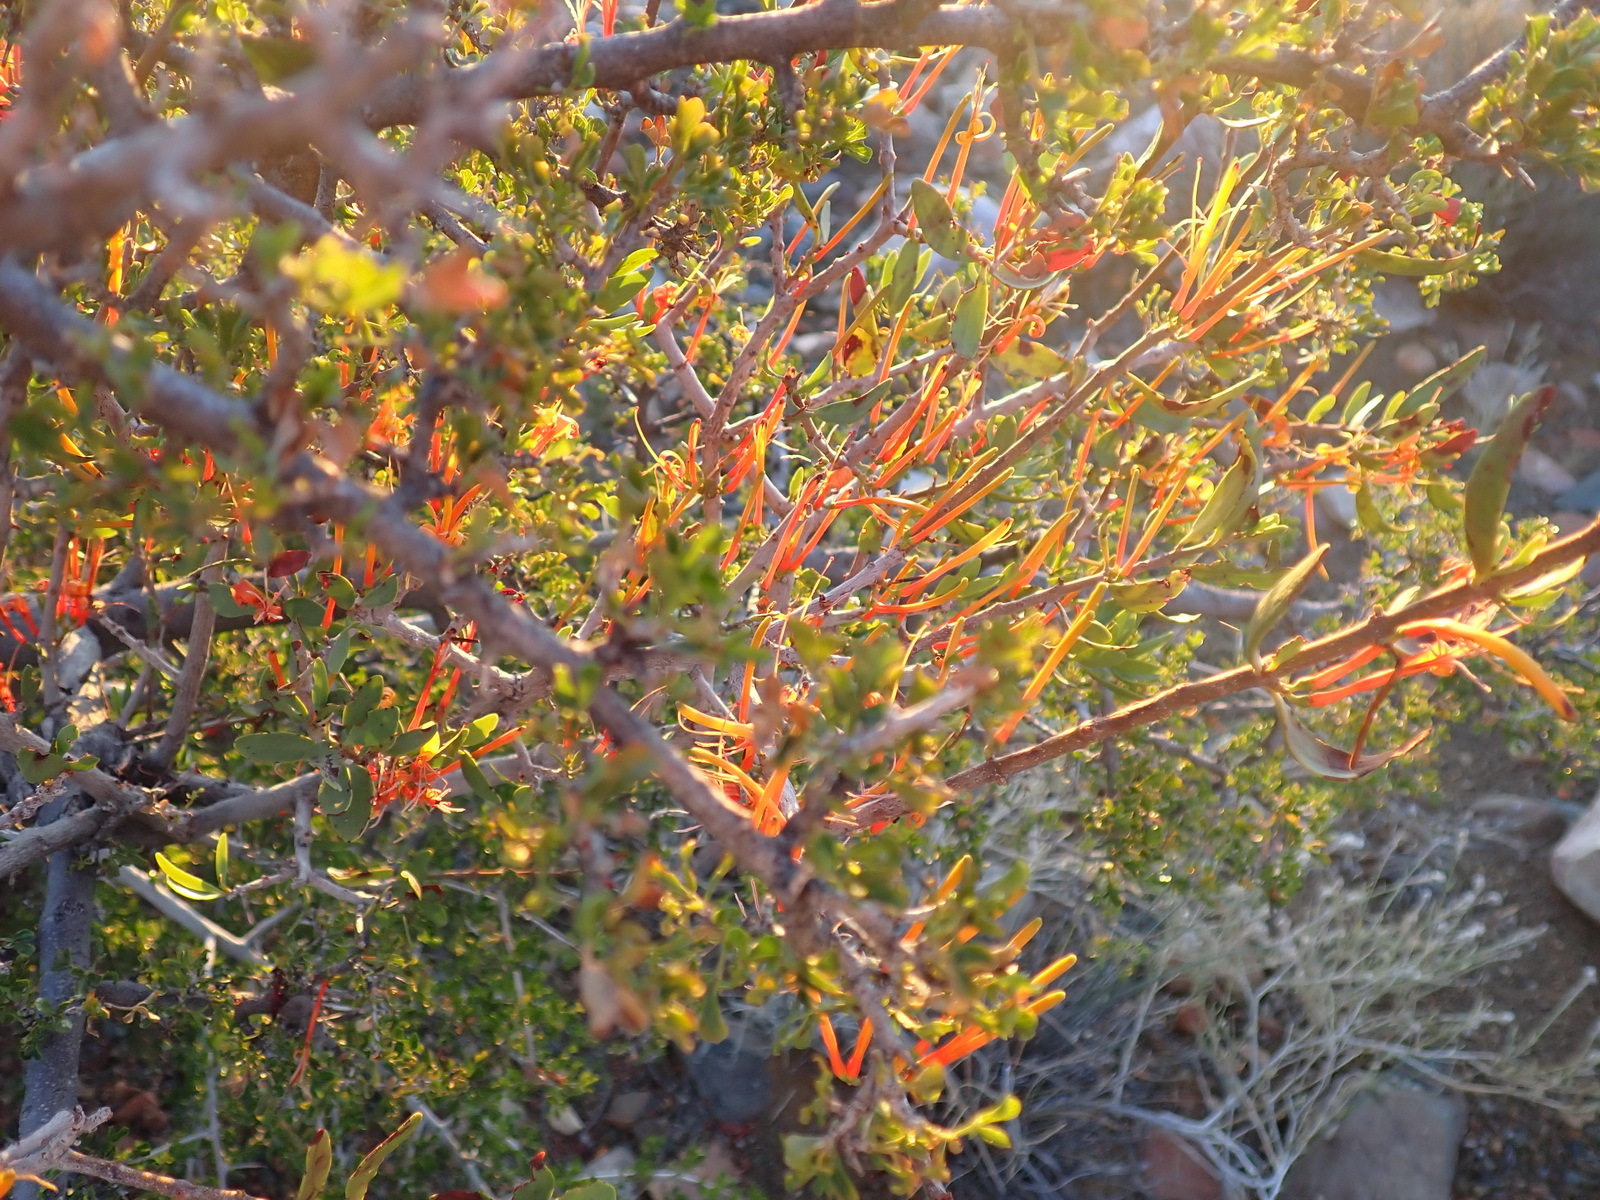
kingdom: Plantae
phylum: Tracheophyta
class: Magnoliopsida
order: Santalales
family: Loranthaceae
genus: Moquiniella
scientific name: Moquiniella rubra
